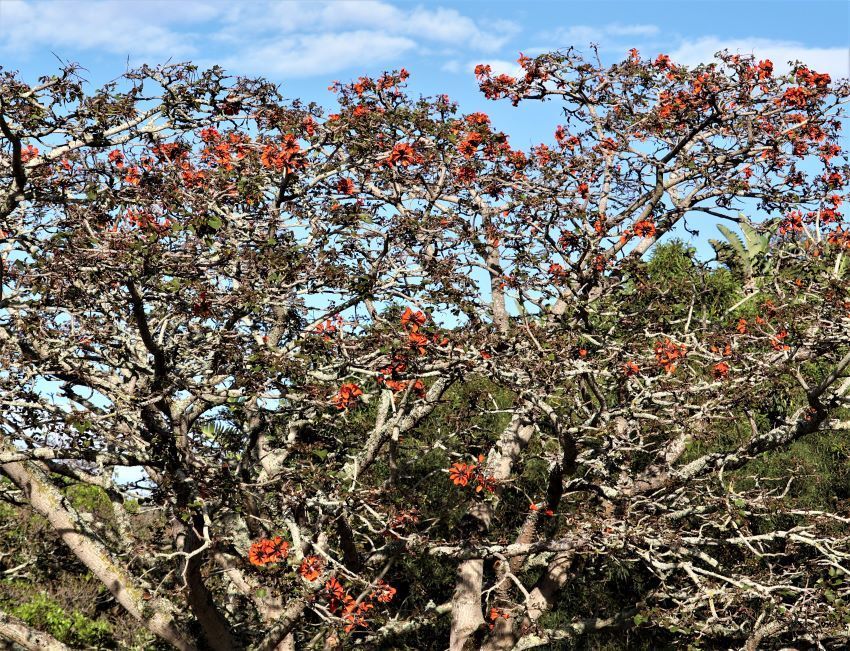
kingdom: Plantae
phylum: Tracheophyta
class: Magnoliopsida
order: Fabales
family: Fabaceae
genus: Erythrina
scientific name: Erythrina caffra
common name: Coast coral tree
